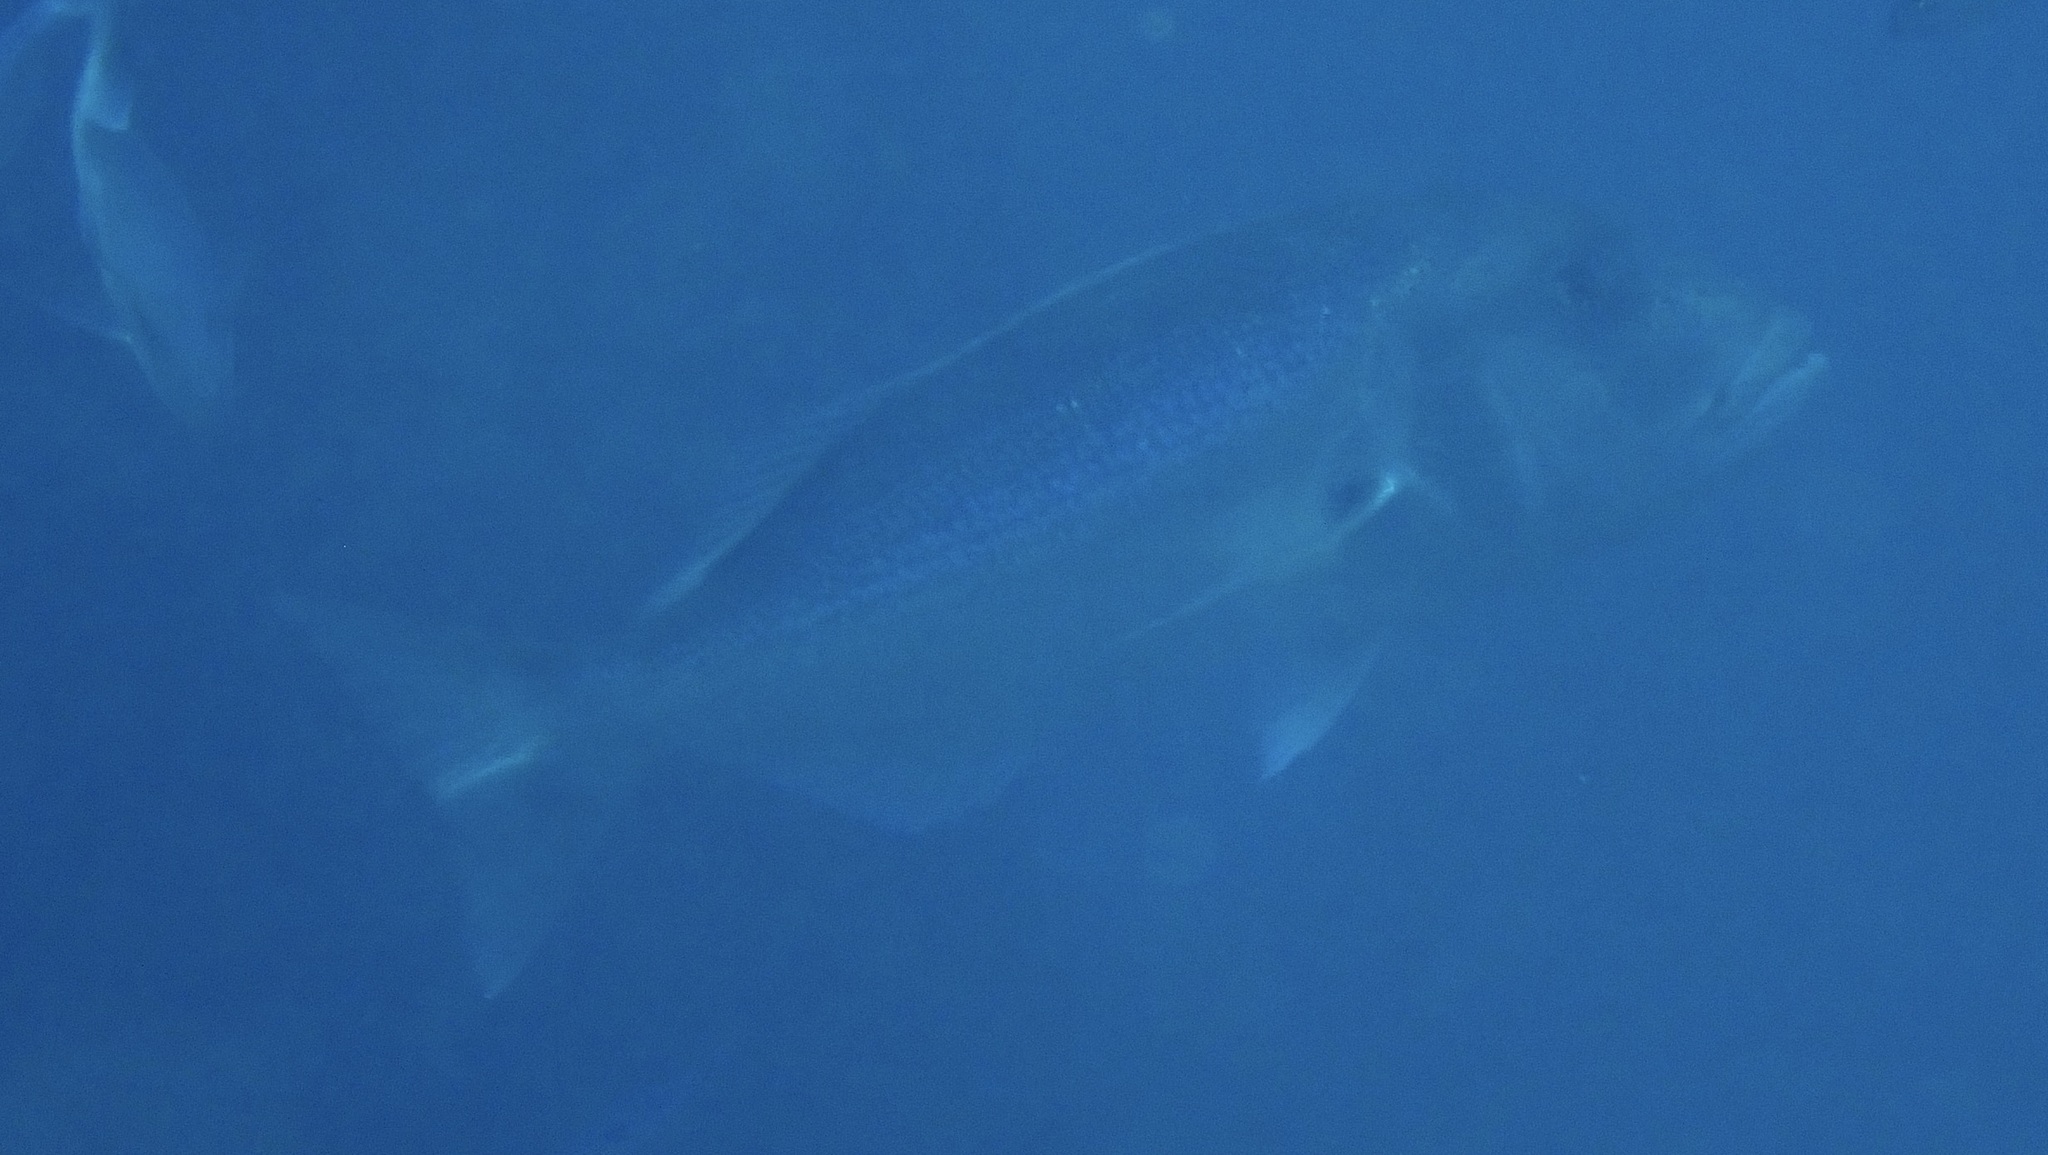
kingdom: Animalia
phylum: Chordata
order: Perciformes
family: Sparidae
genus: Dentex
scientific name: Dentex dentex
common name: Dentex
